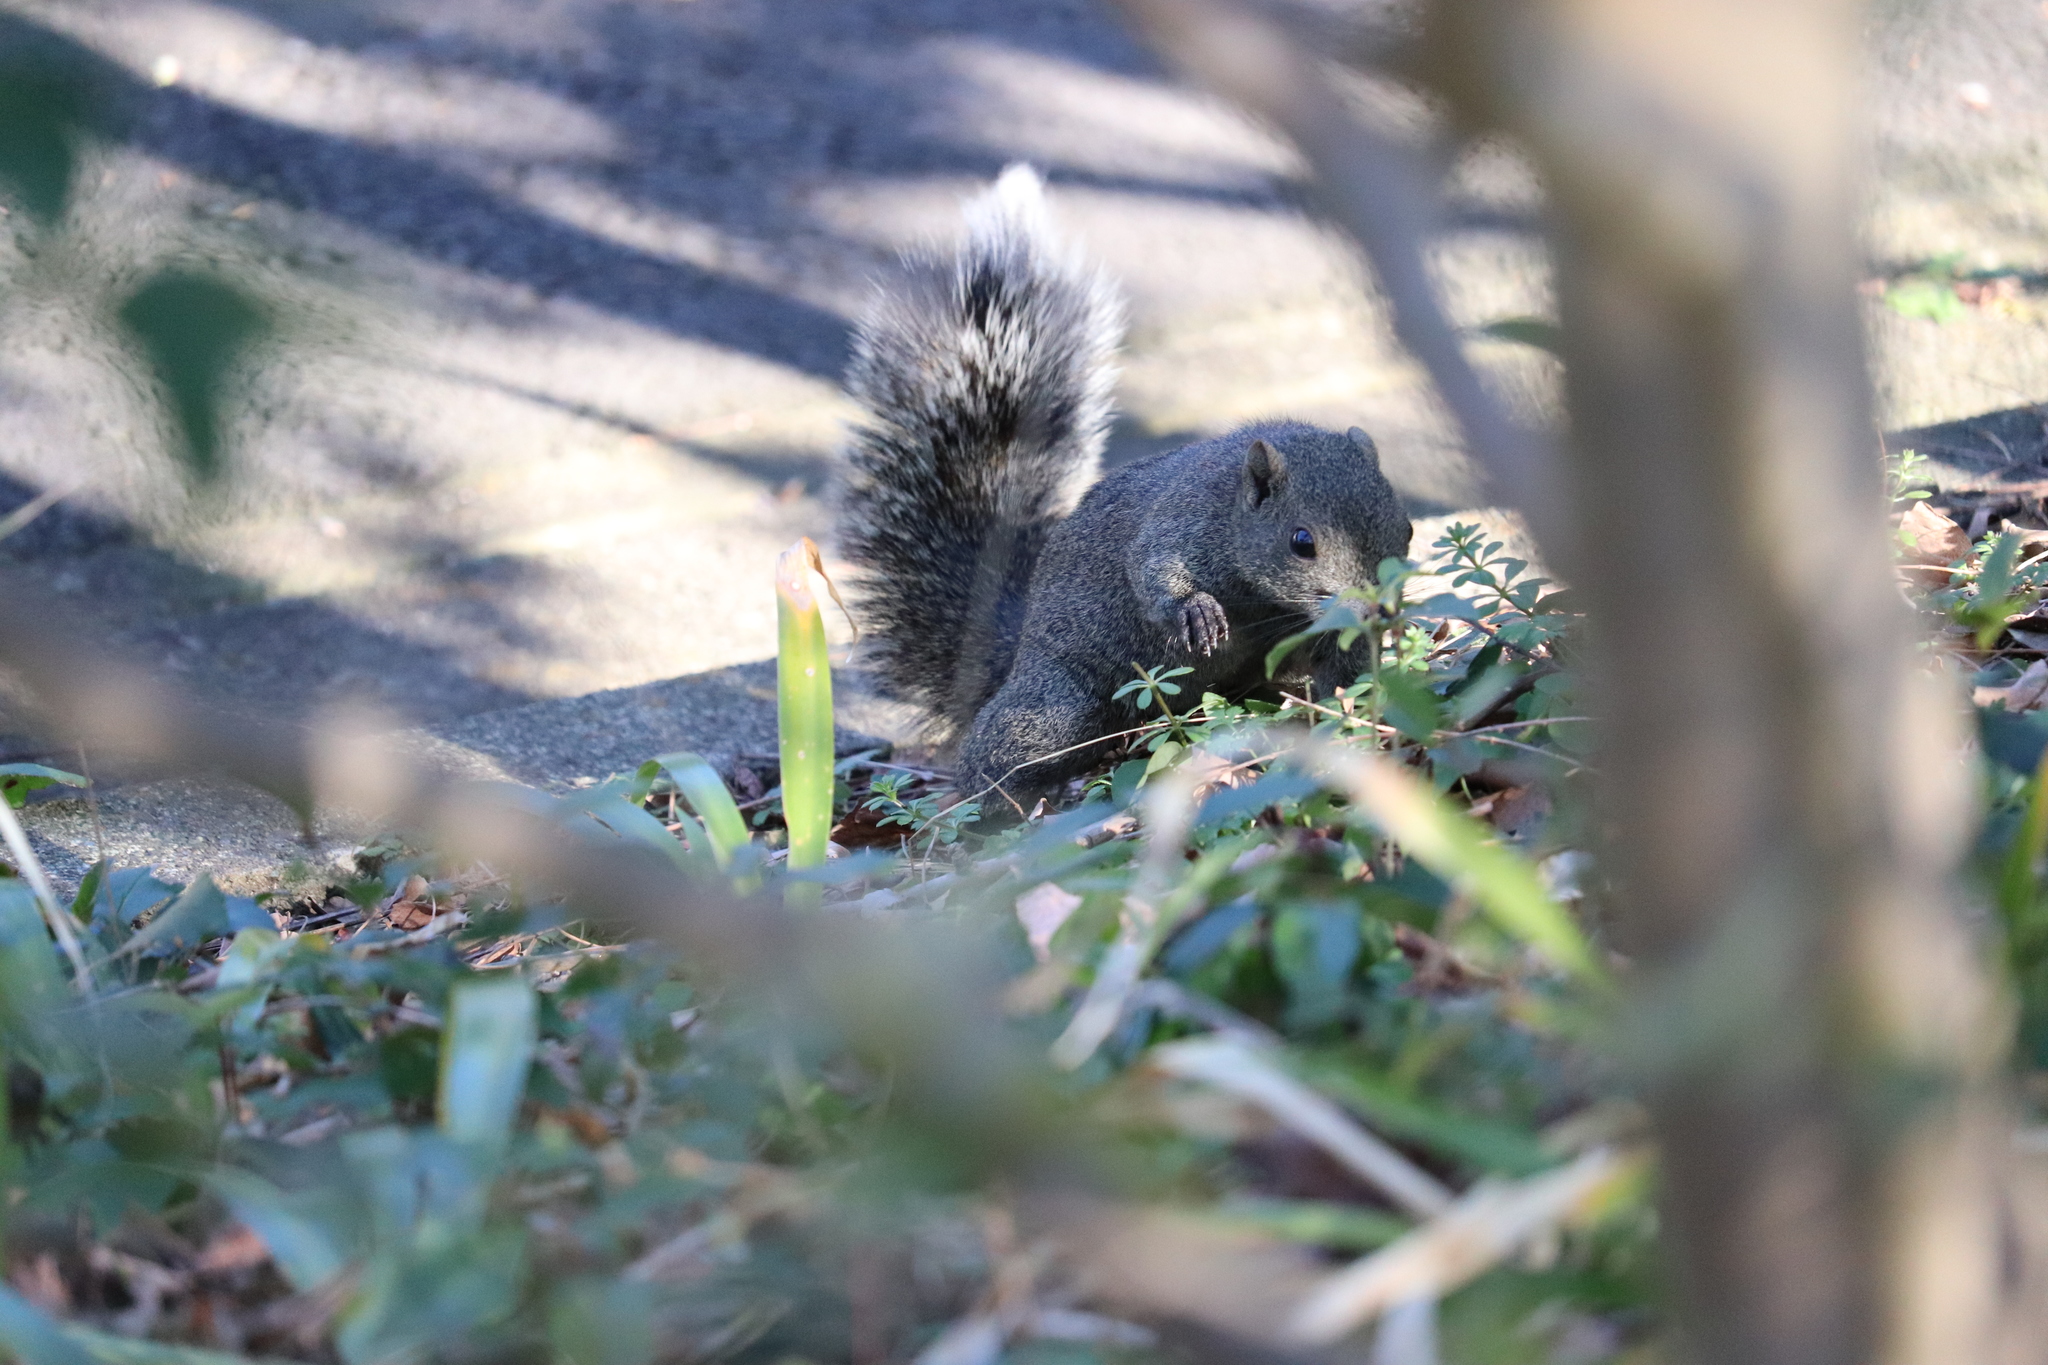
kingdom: Animalia
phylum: Chordata
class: Mammalia
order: Rodentia
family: Sciuridae
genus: Callosciurus
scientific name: Callosciurus erythraeus
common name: Pallas's squirrel
